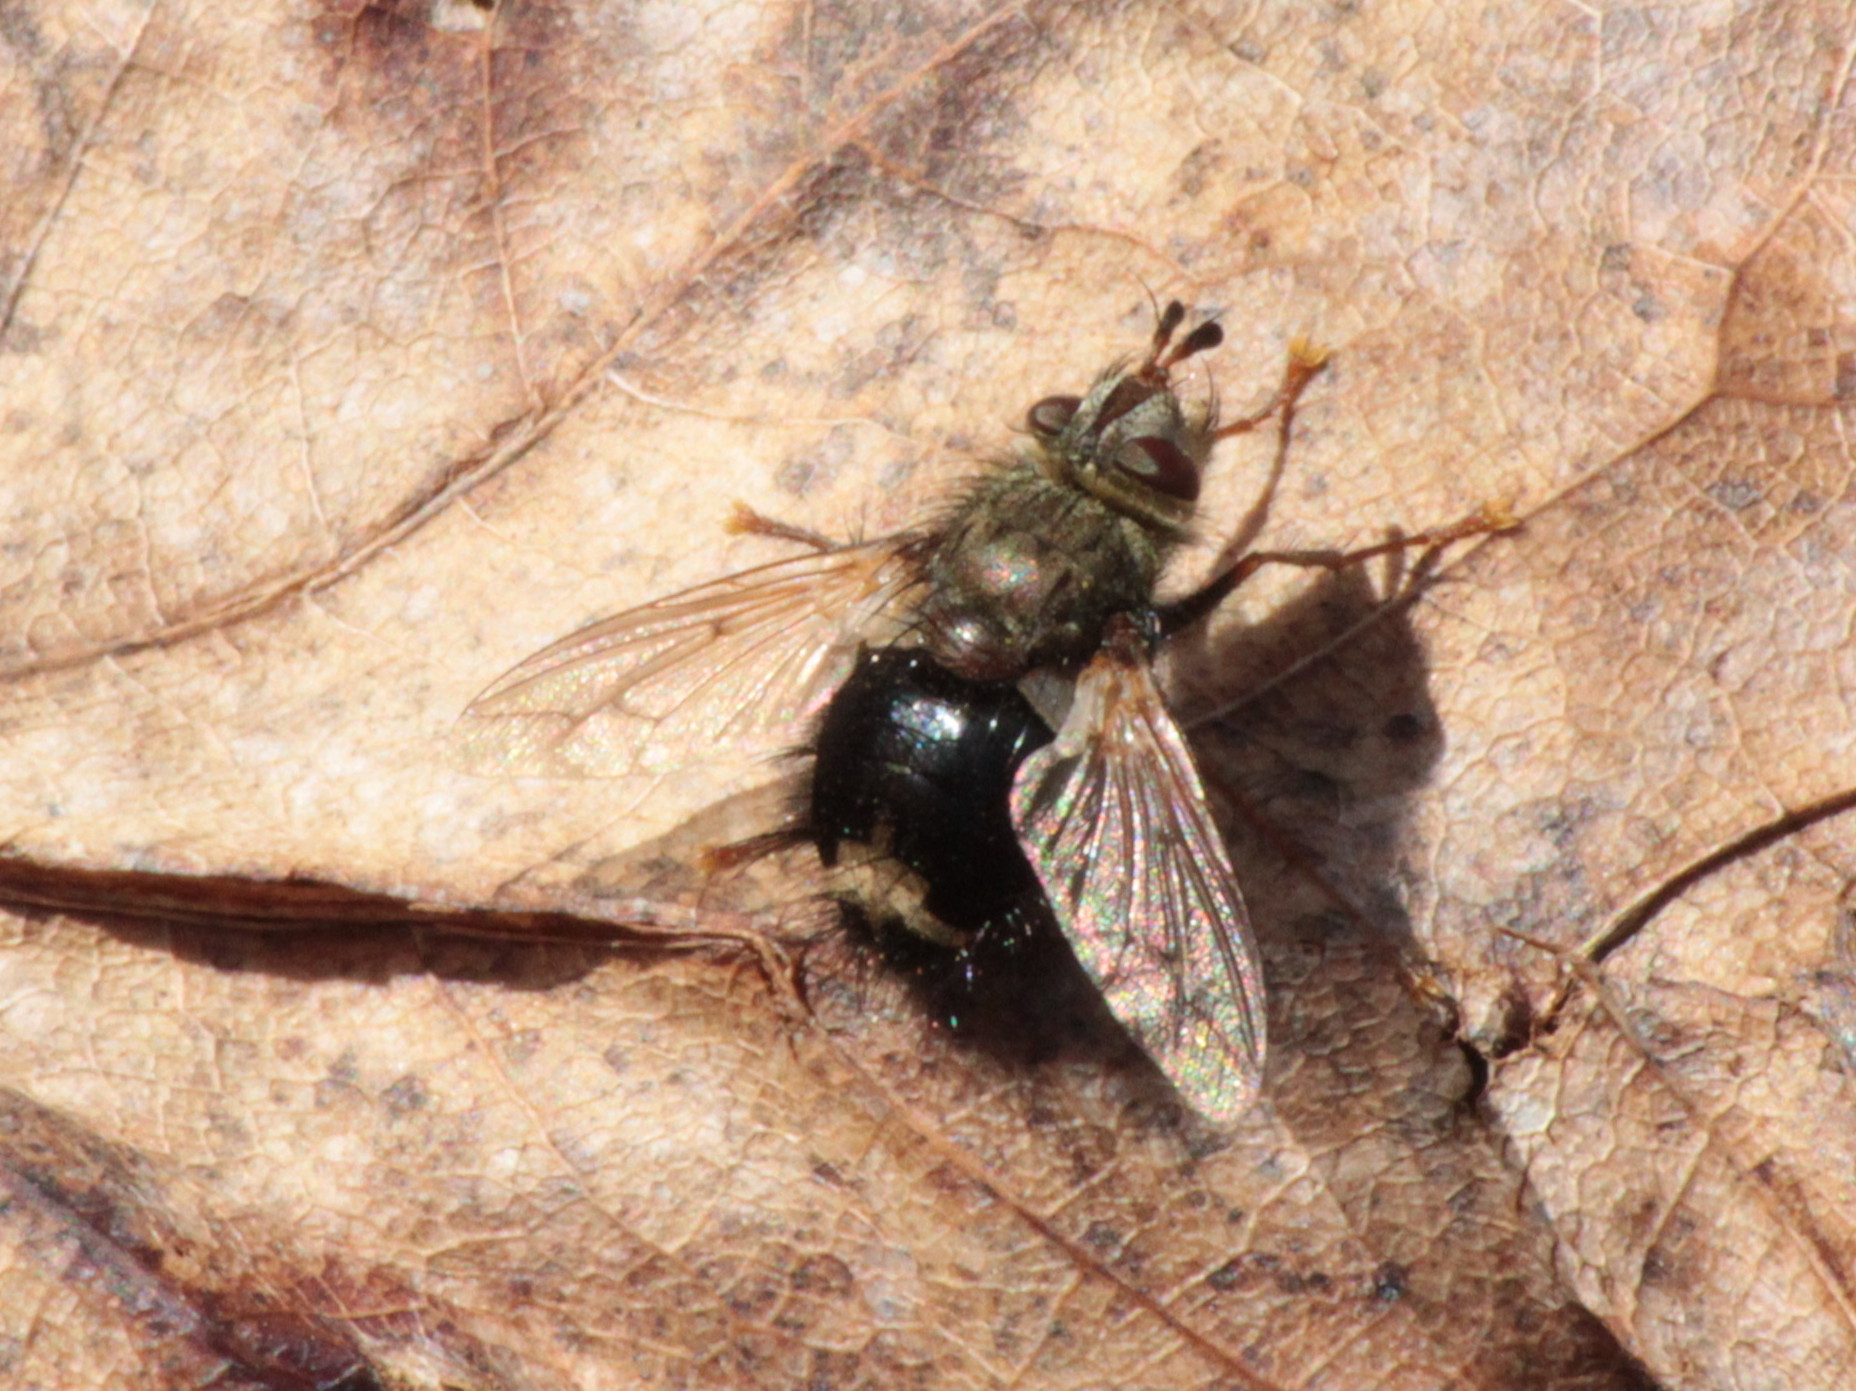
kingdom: Animalia
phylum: Arthropoda
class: Insecta
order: Diptera
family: Tachinidae
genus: Epalpus
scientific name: Epalpus signifer
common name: Early tachinid fly
